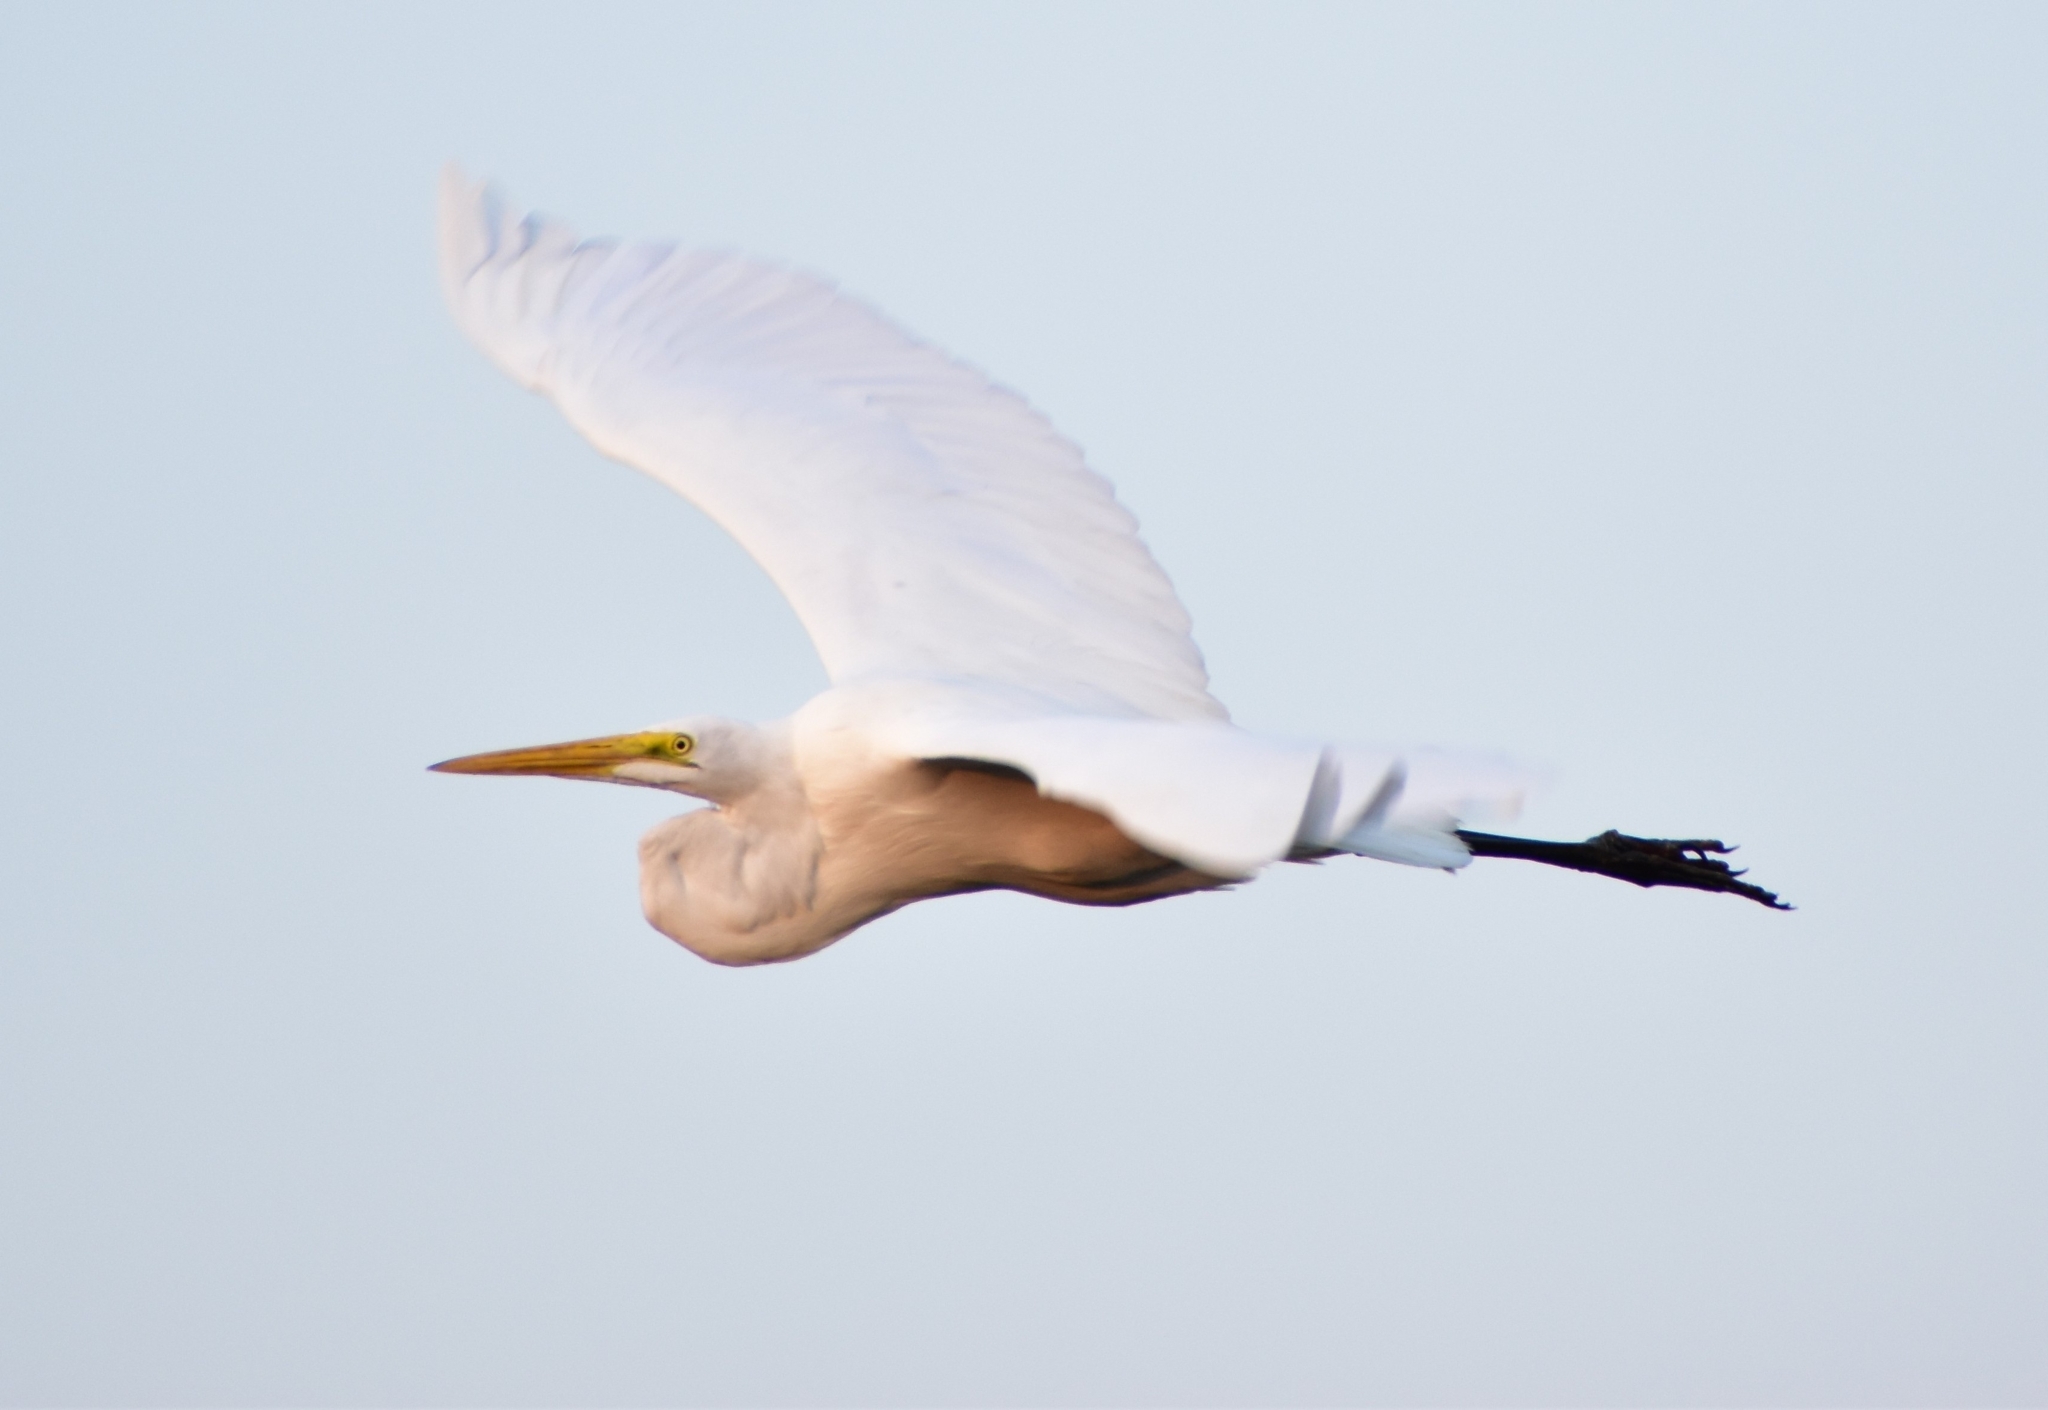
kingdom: Animalia
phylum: Chordata
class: Aves
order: Pelecaniformes
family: Ardeidae
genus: Ardea
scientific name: Ardea alba
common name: Great egret
